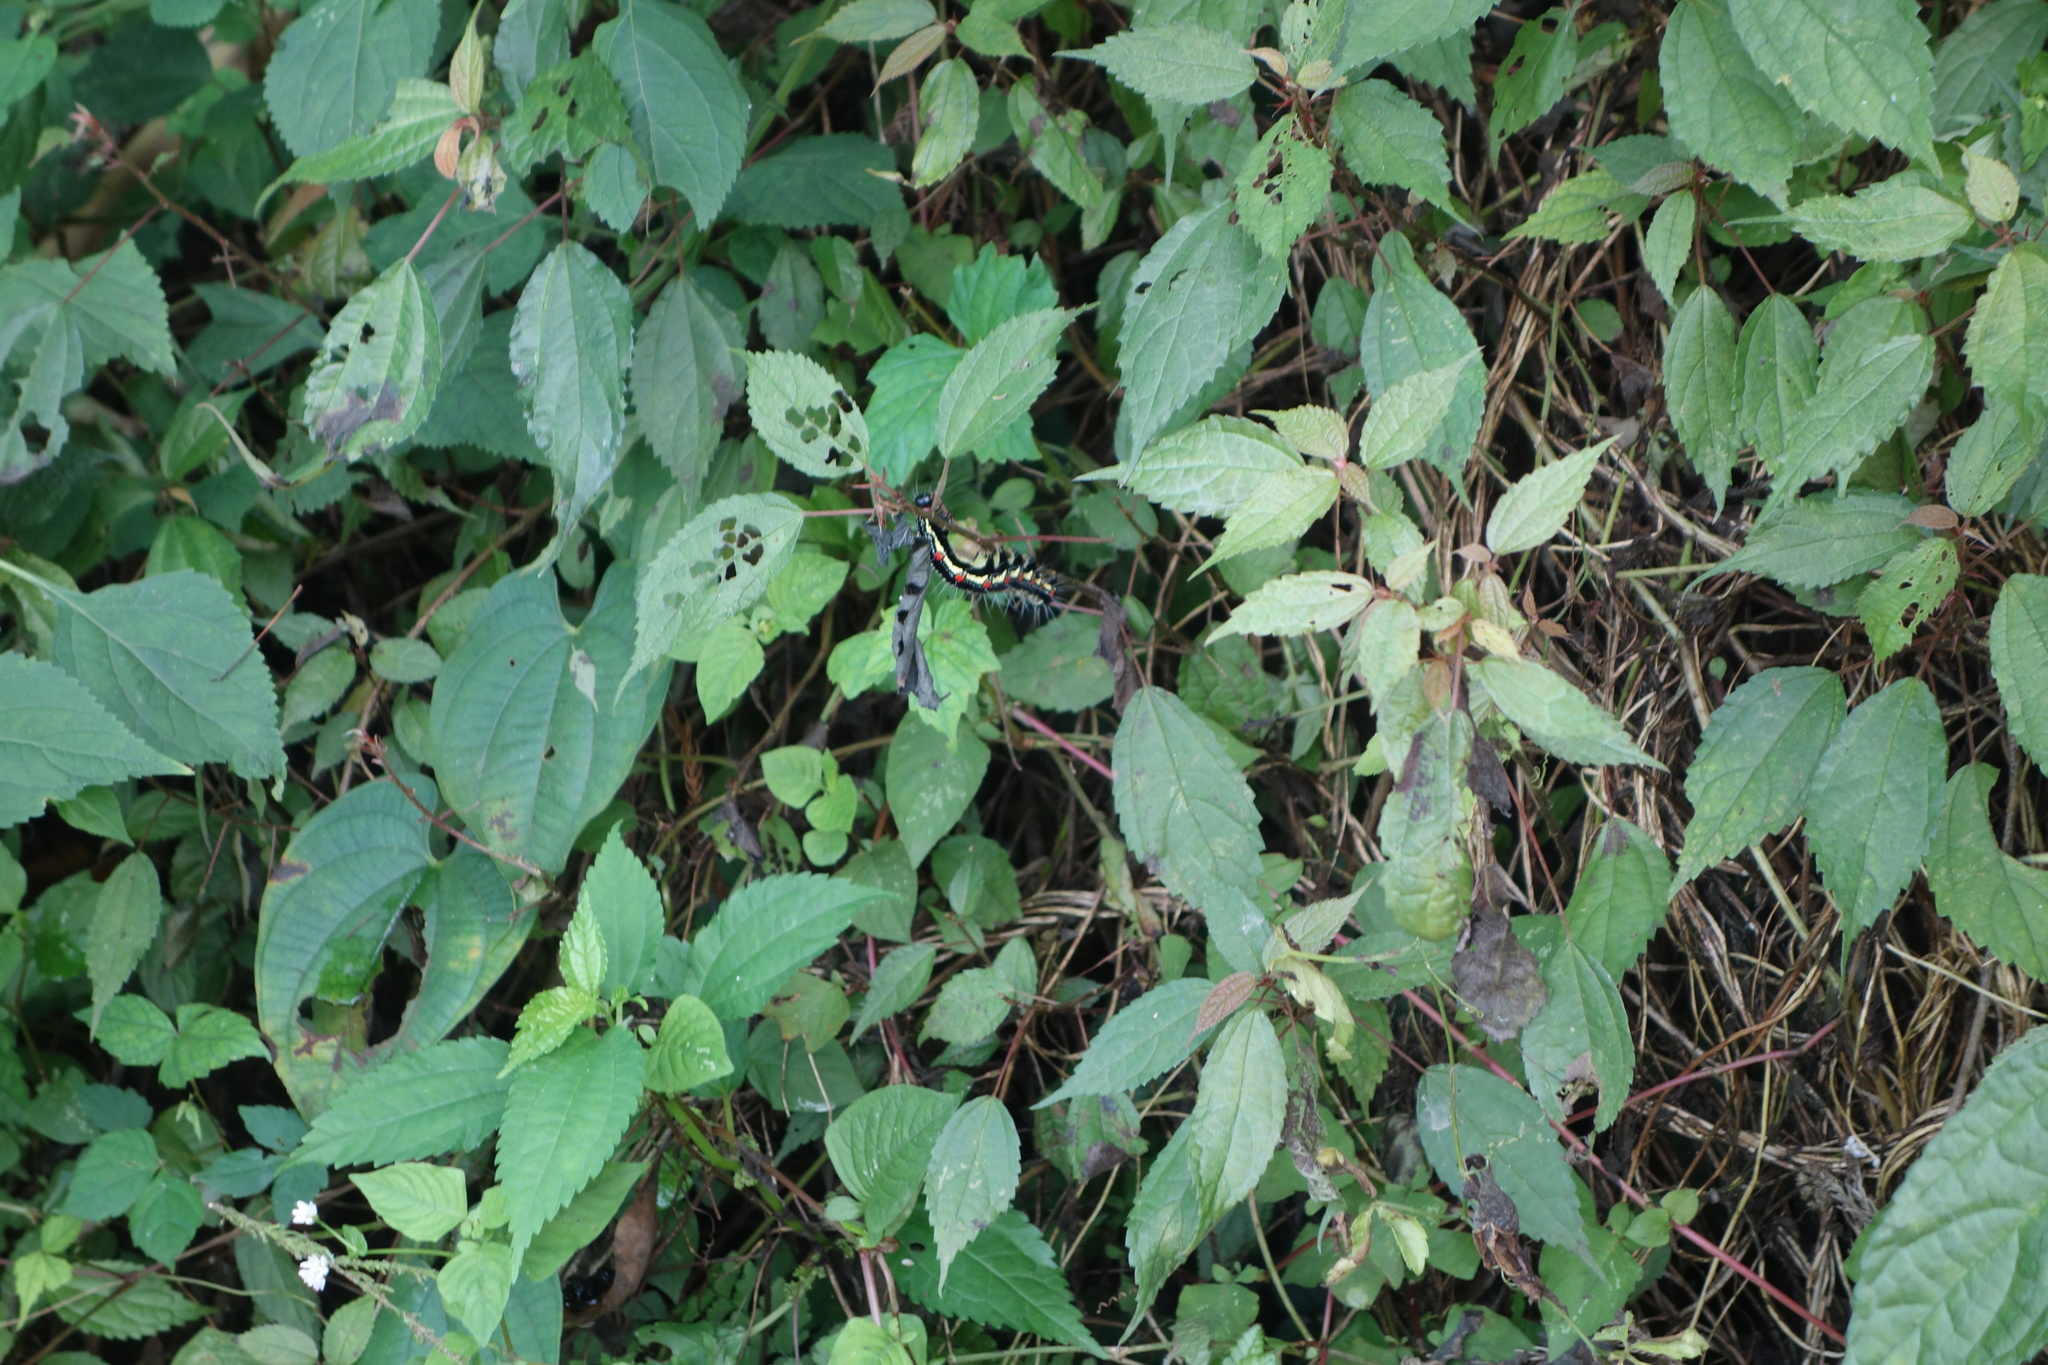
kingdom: Animalia
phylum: Arthropoda
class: Insecta
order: Lepidoptera
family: Erebidae
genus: Arcte
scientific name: Arcte coerula
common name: Ramie moth
